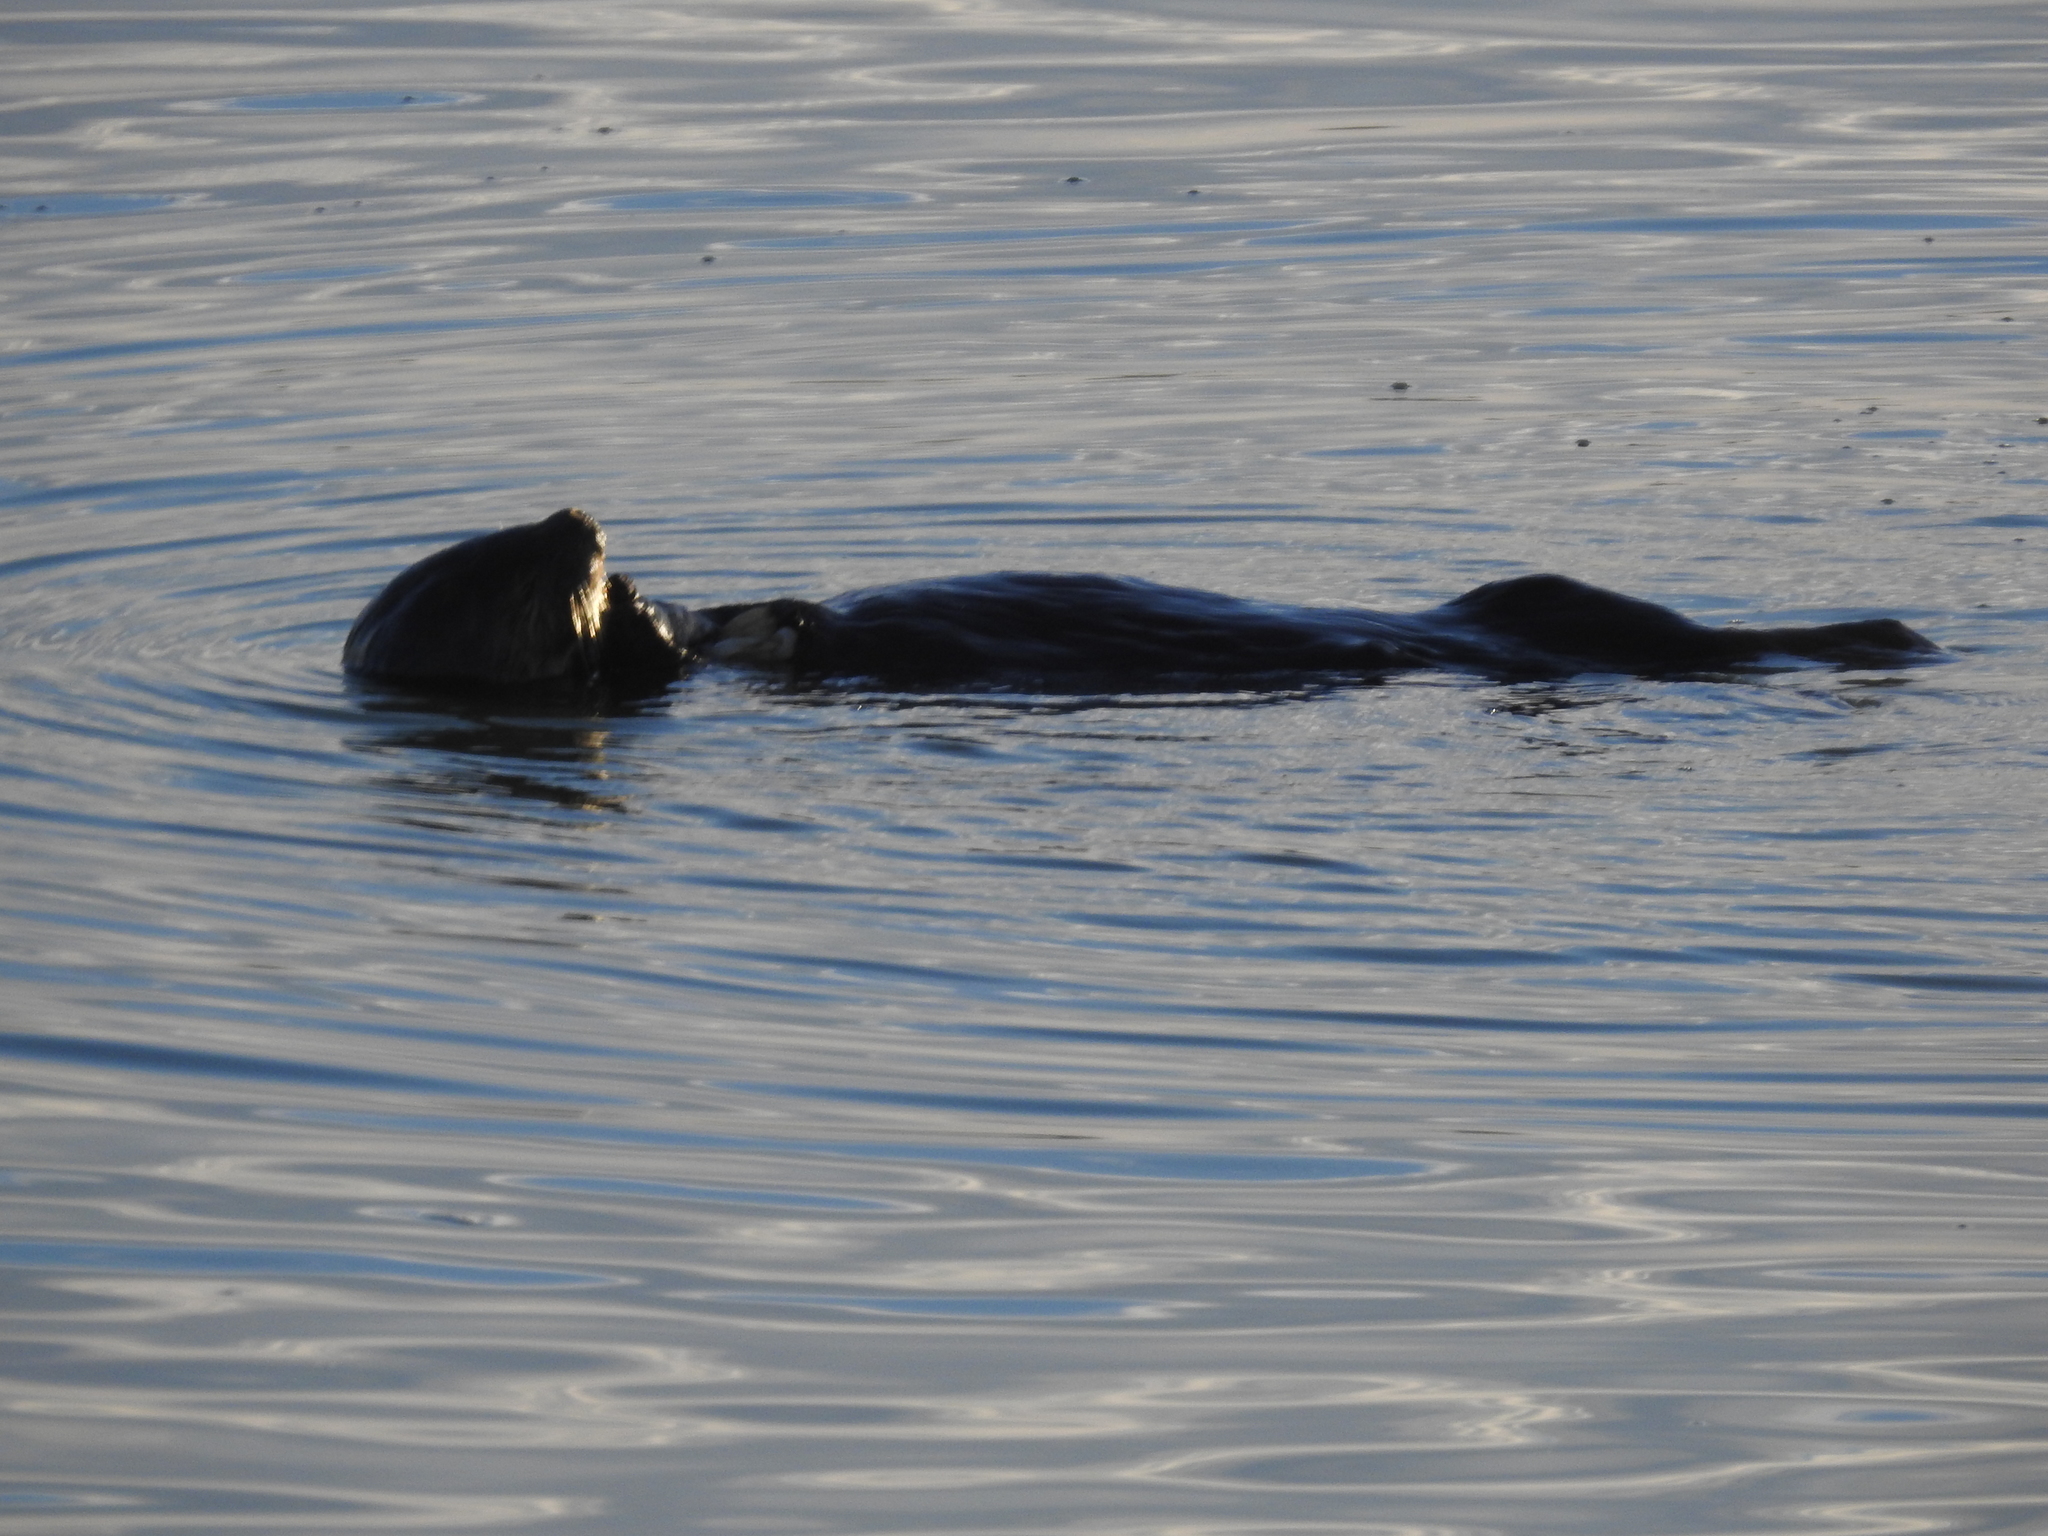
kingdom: Animalia
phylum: Chordata
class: Mammalia
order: Carnivora
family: Mustelidae
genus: Enhydra
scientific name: Enhydra lutris
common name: Sea otter
